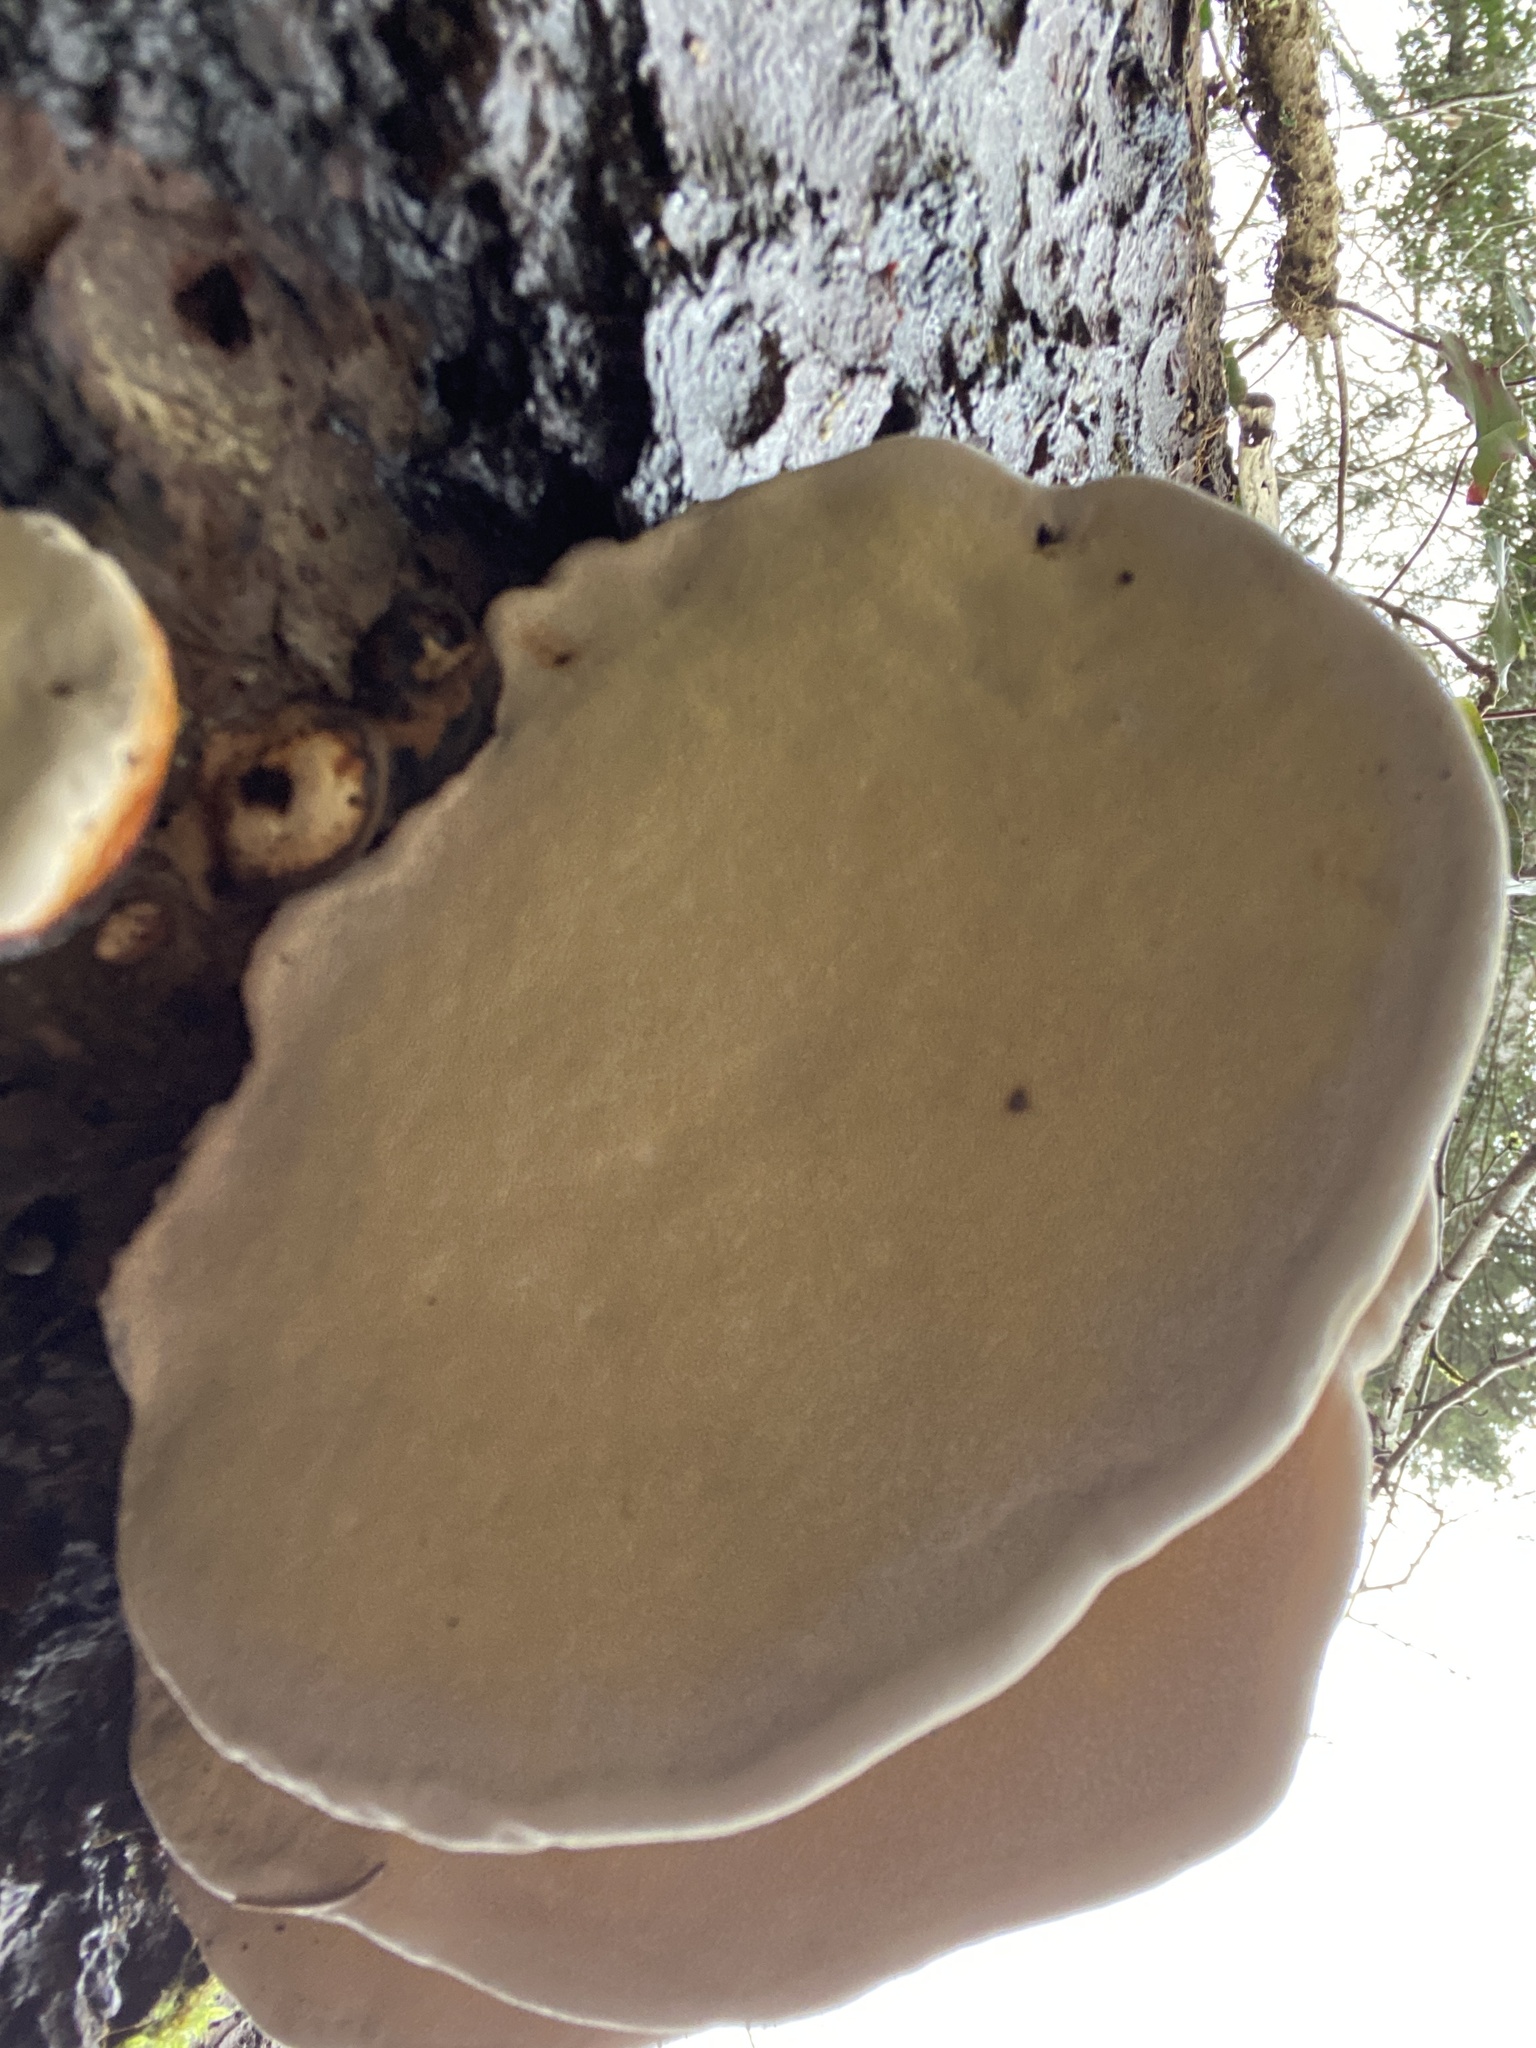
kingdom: Fungi
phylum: Basidiomycota
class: Agaricomycetes
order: Polyporales
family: Fomitopsidaceae
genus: Fomitopsis
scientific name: Fomitopsis pinicola
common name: Red-belted bracket
